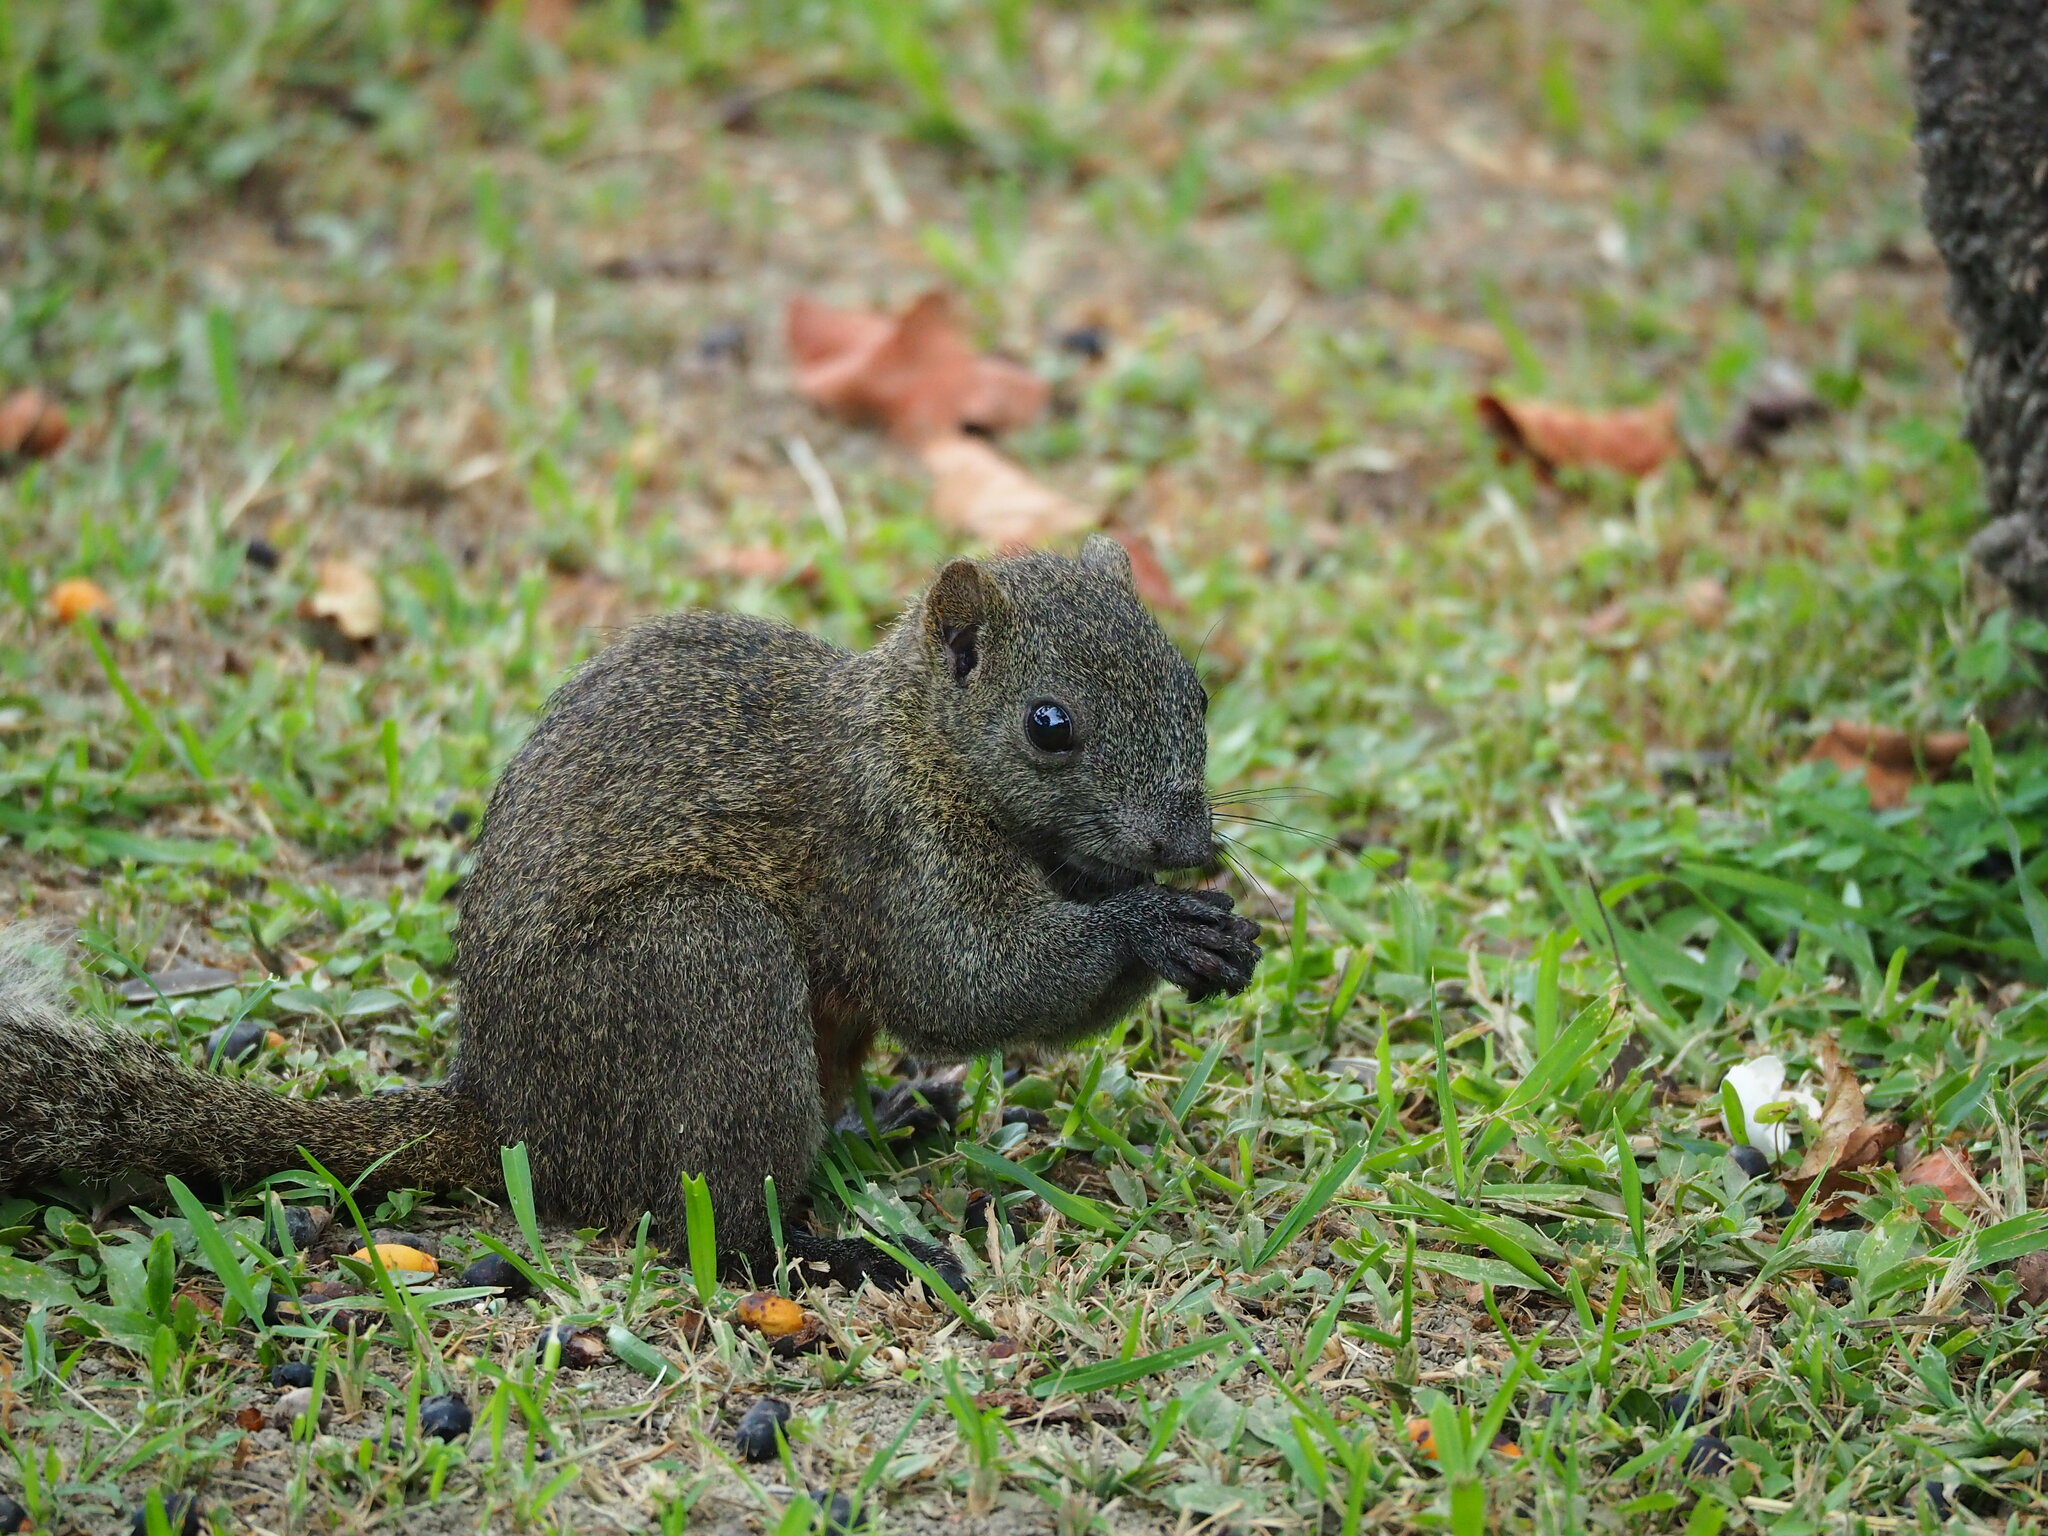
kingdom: Animalia
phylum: Chordata
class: Mammalia
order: Rodentia
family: Sciuridae
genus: Callosciurus
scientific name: Callosciurus erythraeus
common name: Pallas's squirrel
